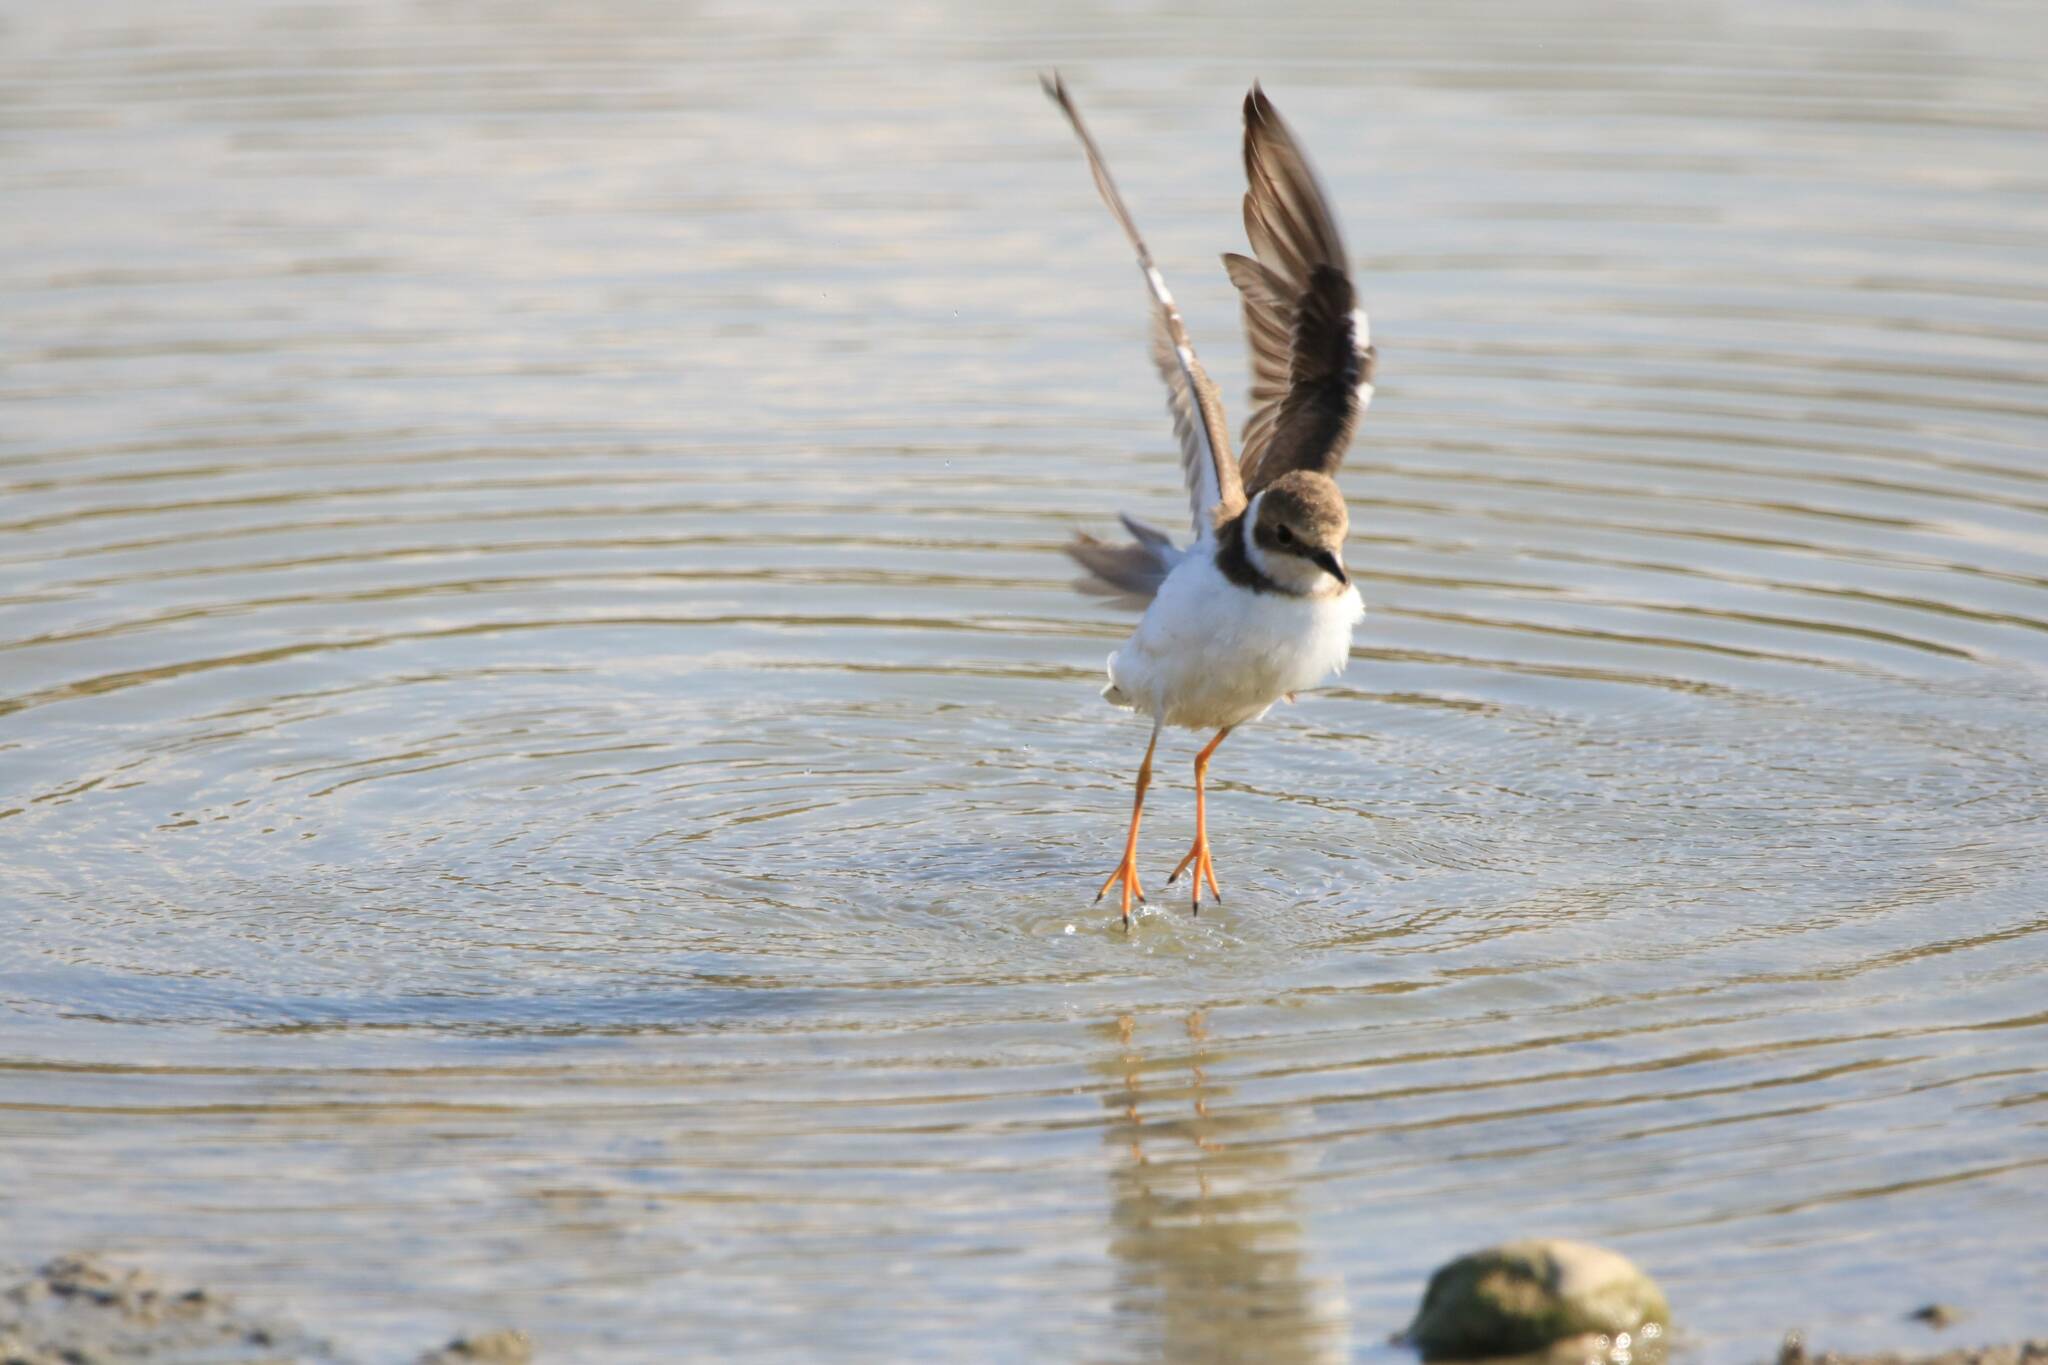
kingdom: Animalia
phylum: Chordata
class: Aves
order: Charadriiformes
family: Charadriidae
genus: Charadrius
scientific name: Charadrius dubius
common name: Little ringed plover
